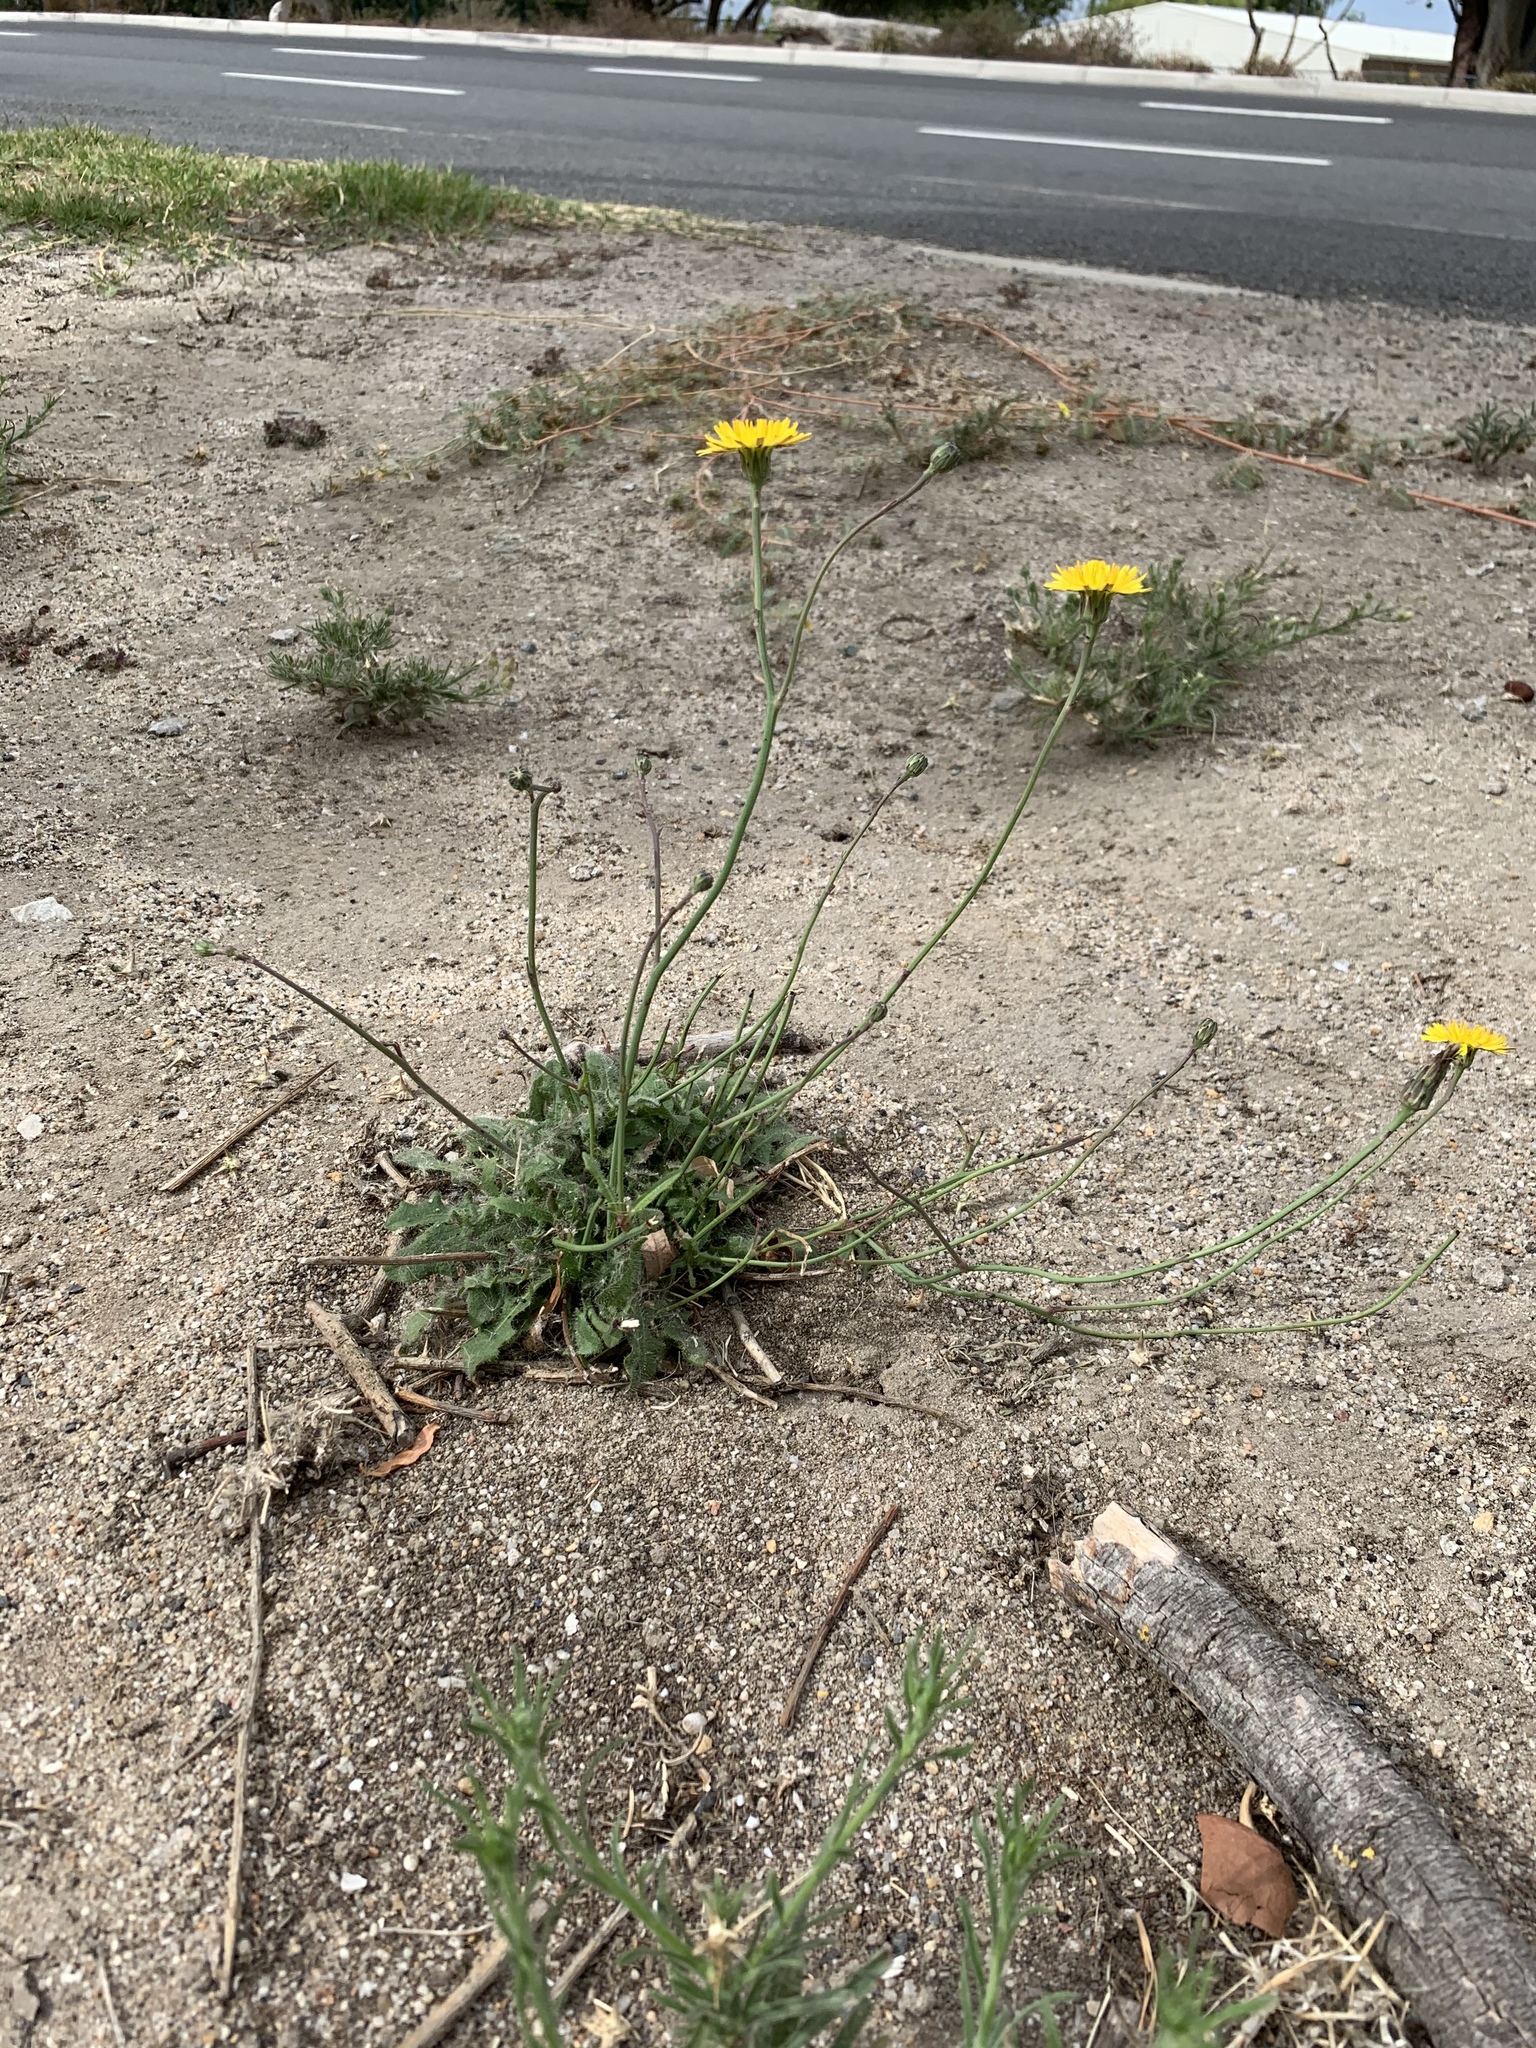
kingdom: Plantae
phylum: Tracheophyta
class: Magnoliopsida
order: Asterales
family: Asteraceae
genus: Hypochaeris
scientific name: Hypochaeris radicata
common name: Flatweed
